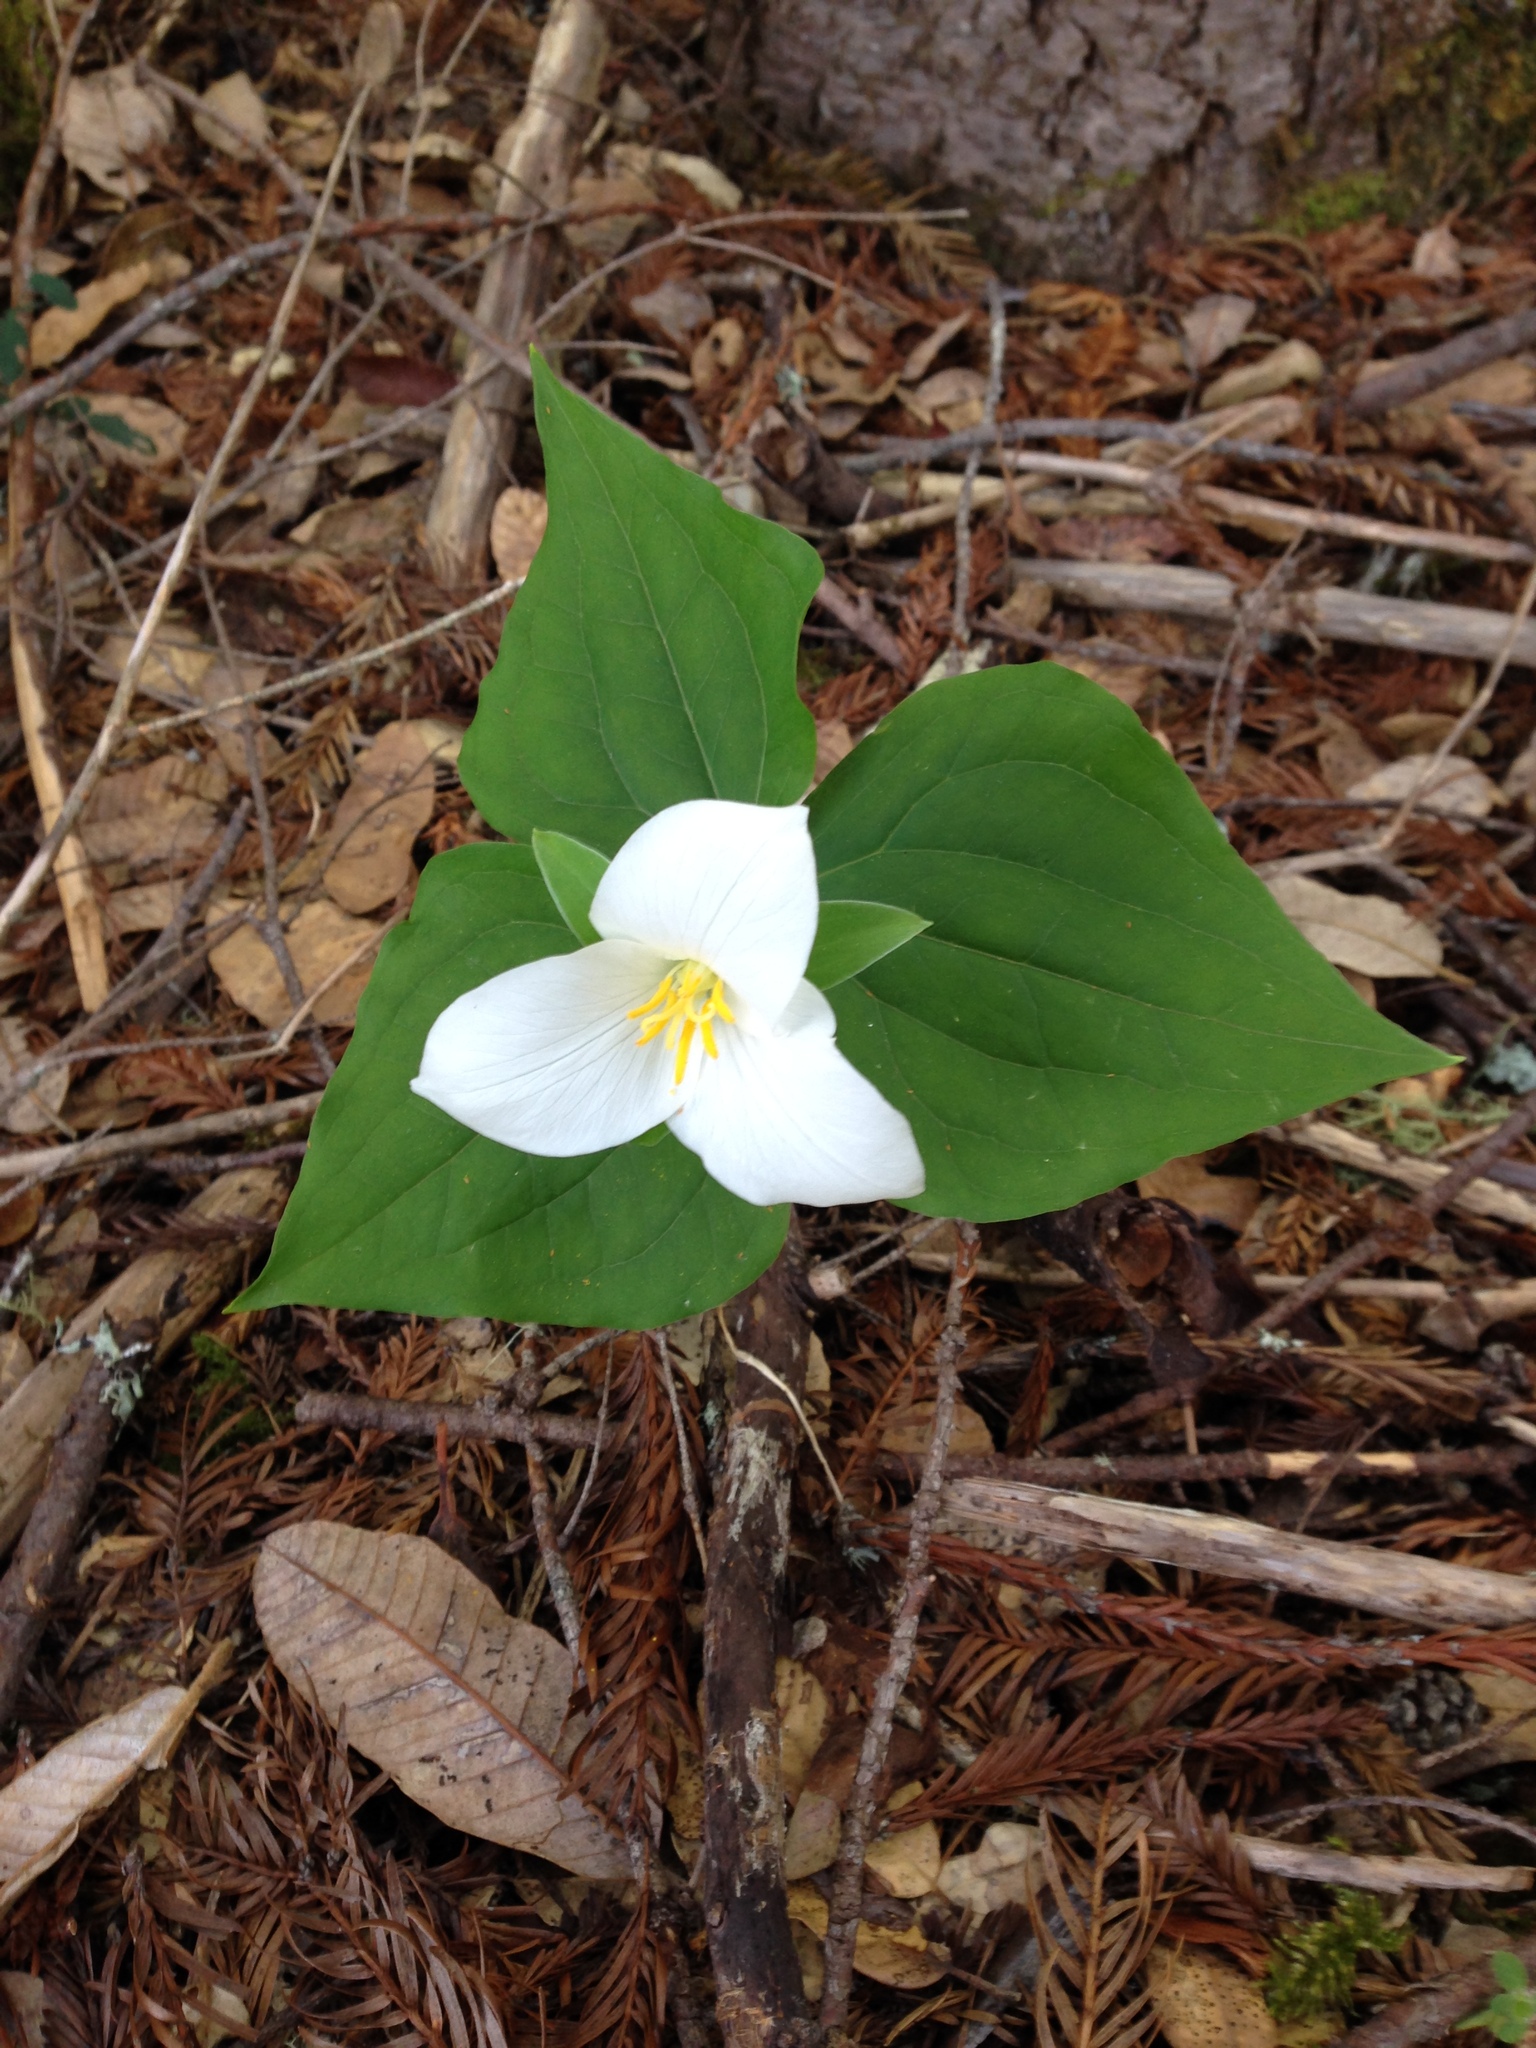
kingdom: Plantae
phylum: Tracheophyta
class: Liliopsida
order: Liliales
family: Melanthiaceae
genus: Trillium
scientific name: Trillium ovatum
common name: Pacific trillium
